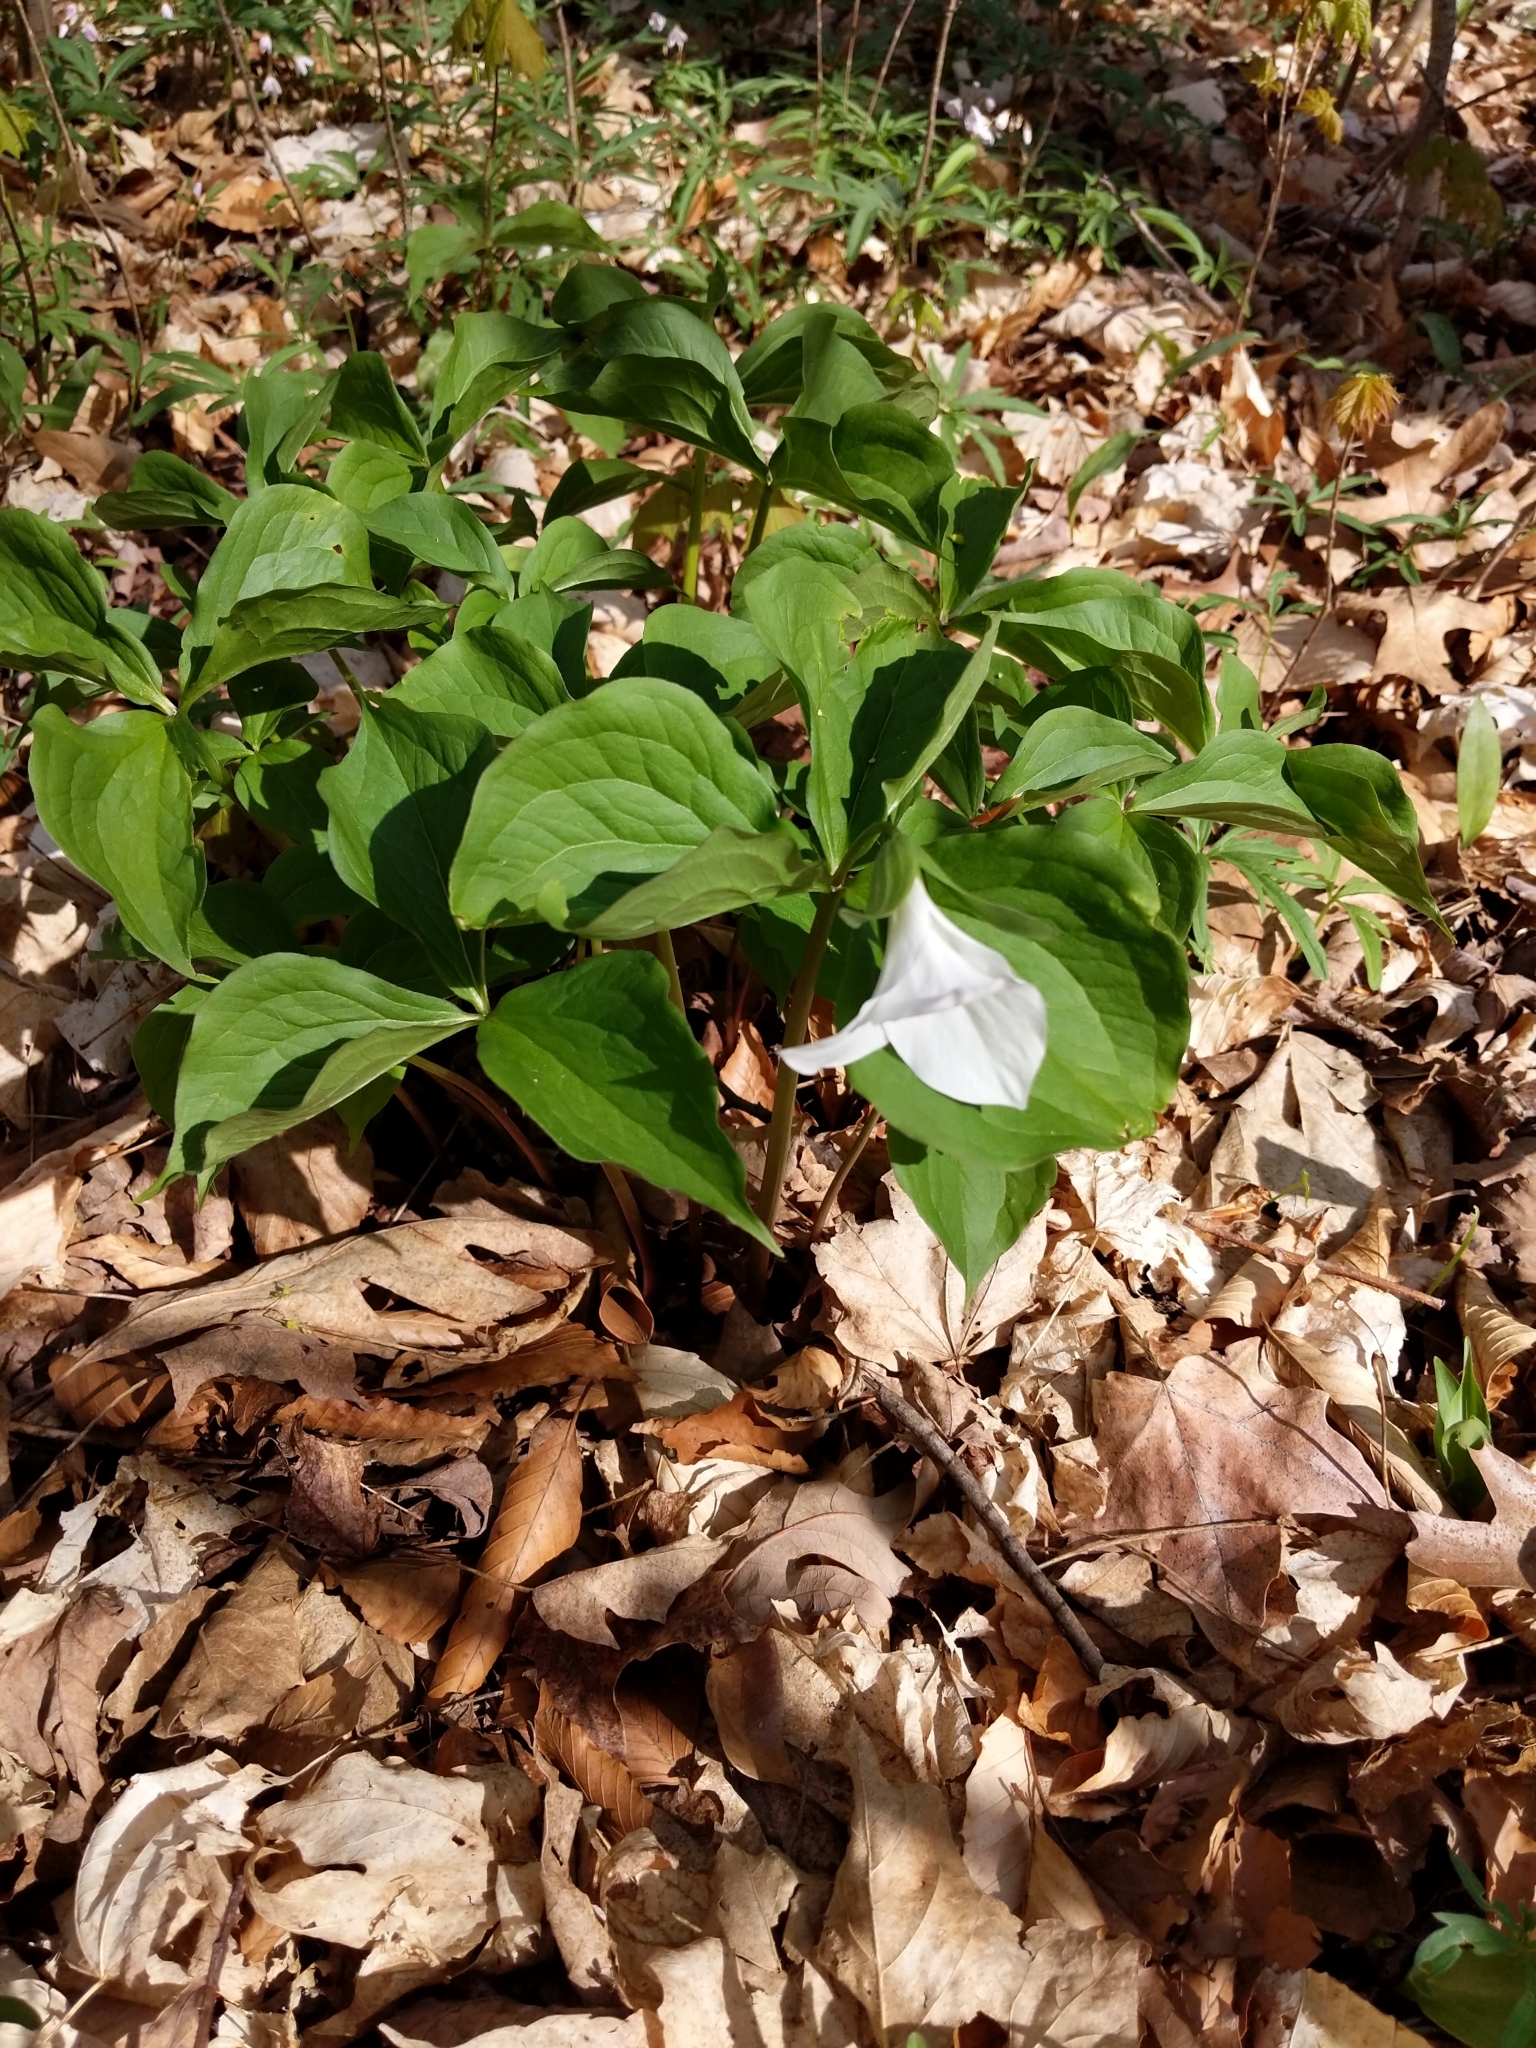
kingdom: Plantae
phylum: Tracheophyta
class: Liliopsida
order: Liliales
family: Melanthiaceae
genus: Trillium
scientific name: Trillium grandiflorum
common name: Great white trillium
